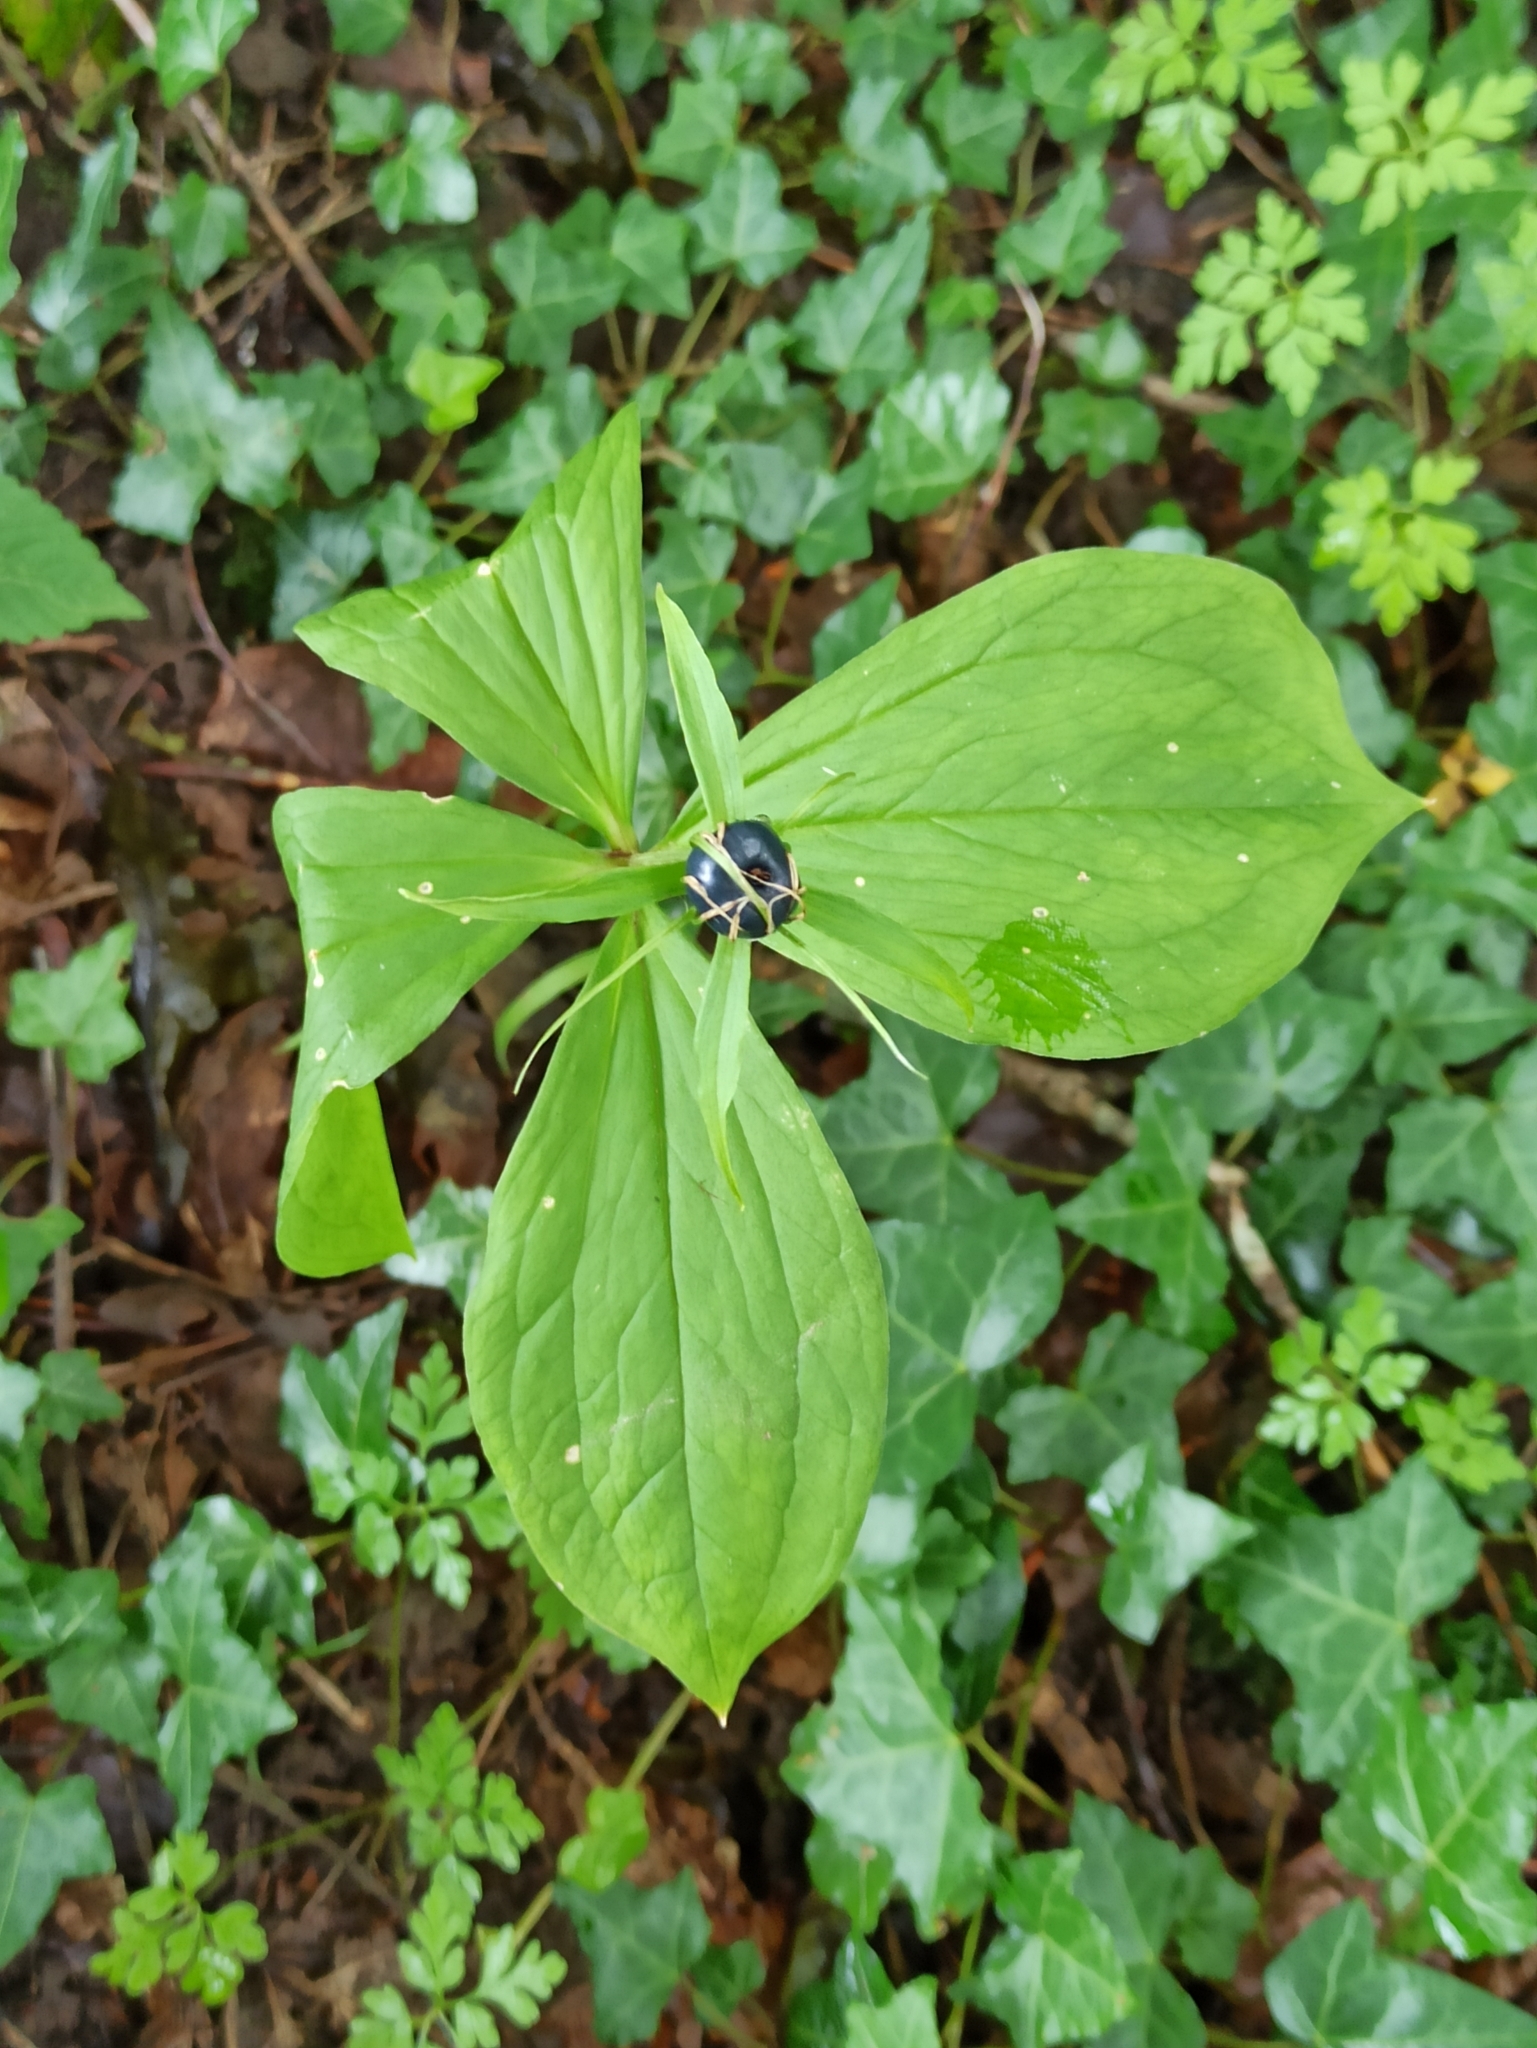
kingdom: Plantae
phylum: Tracheophyta
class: Liliopsida
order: Liliales
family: Melanthiaceae
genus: Paris
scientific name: Paris quadrifolia
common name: Herb-paris
